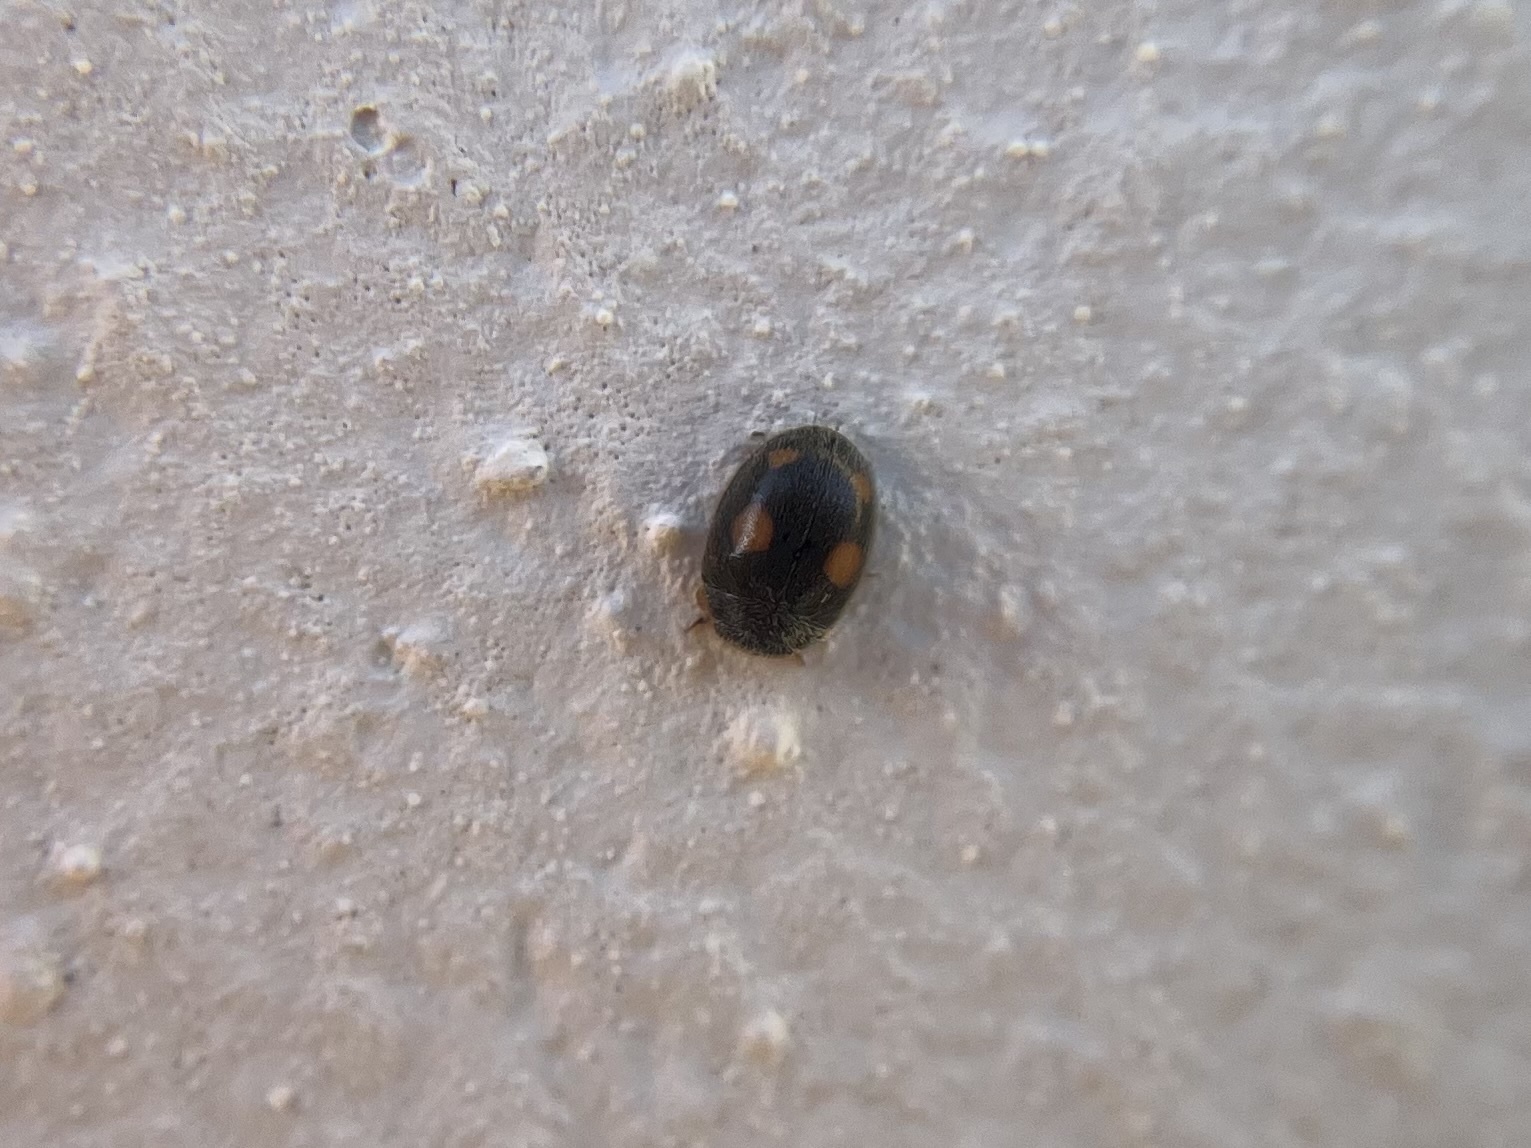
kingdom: Animalia
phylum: Arthropoda
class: Insecta
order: Coleoptera
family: Coccinellidae
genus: Platynaspis
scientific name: Platynaspis luteorubra
